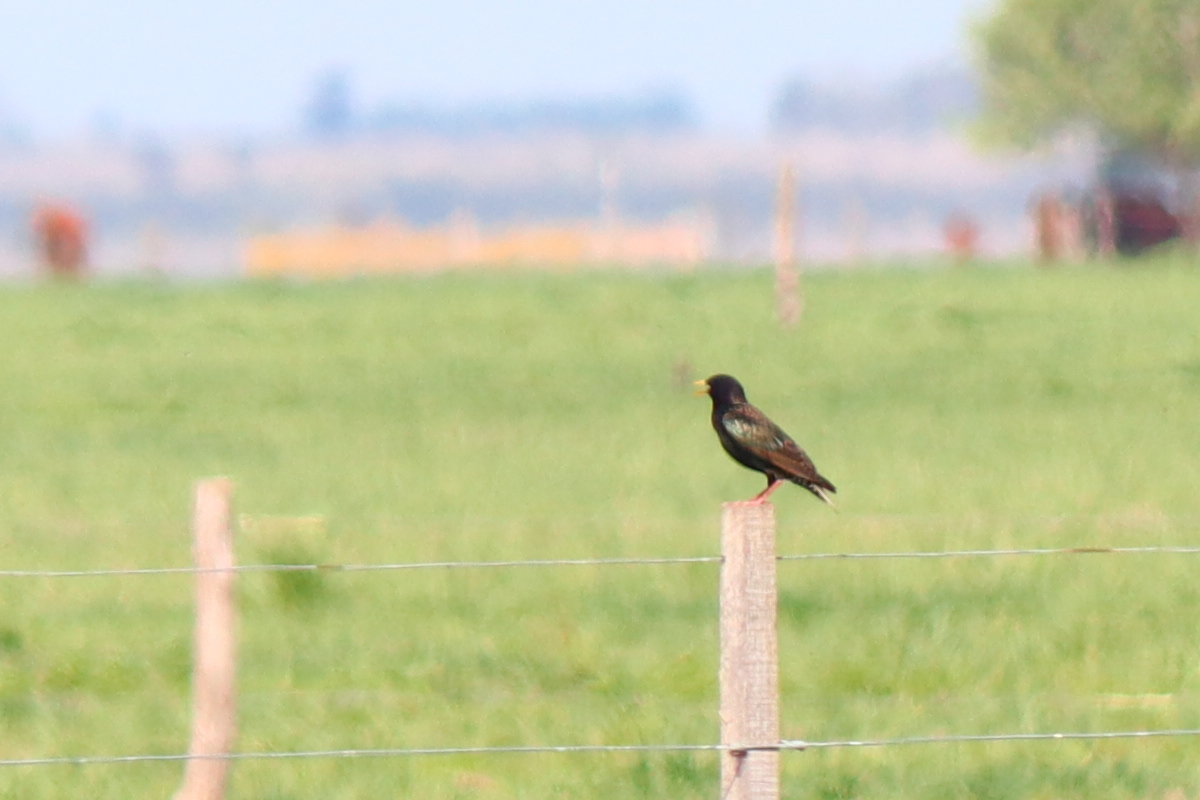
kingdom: Animalia
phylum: Chordata
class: Aves
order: Passeriformes
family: Sturnidae
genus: Sturnus
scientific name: Sturnus vulgaris
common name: Common starling
